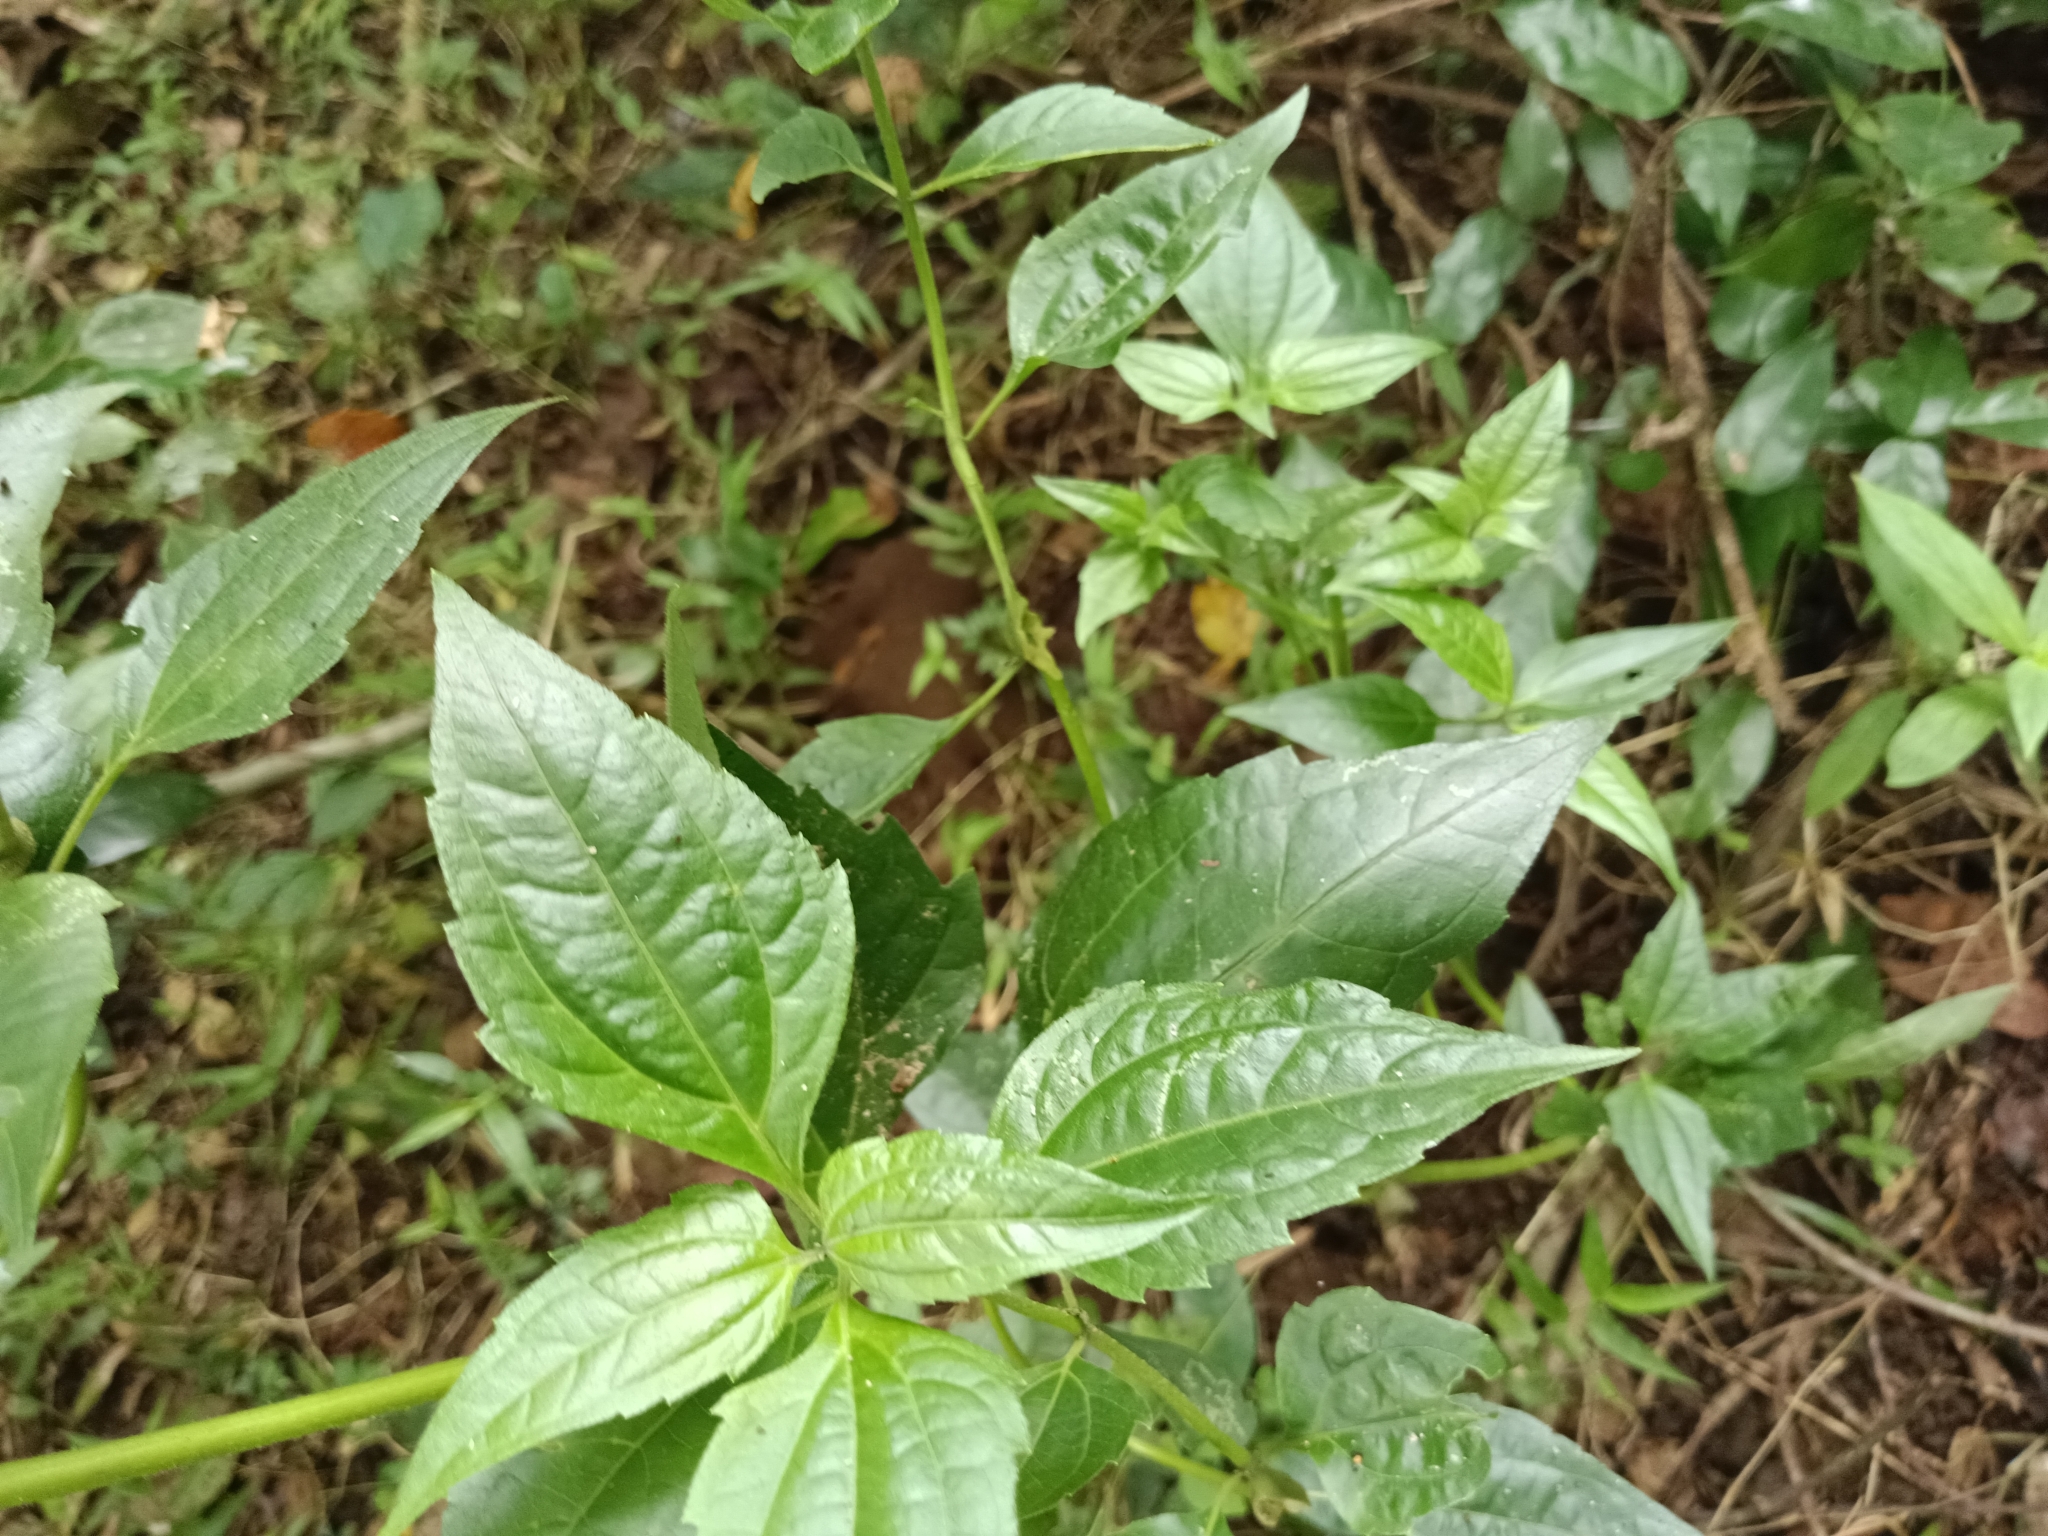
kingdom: Plantae
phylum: Tracheophyta
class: Magnoliopsida
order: Asterales
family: Asteraceae
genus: Chromolaena
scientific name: Chromolaena odorata
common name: Siamweed
